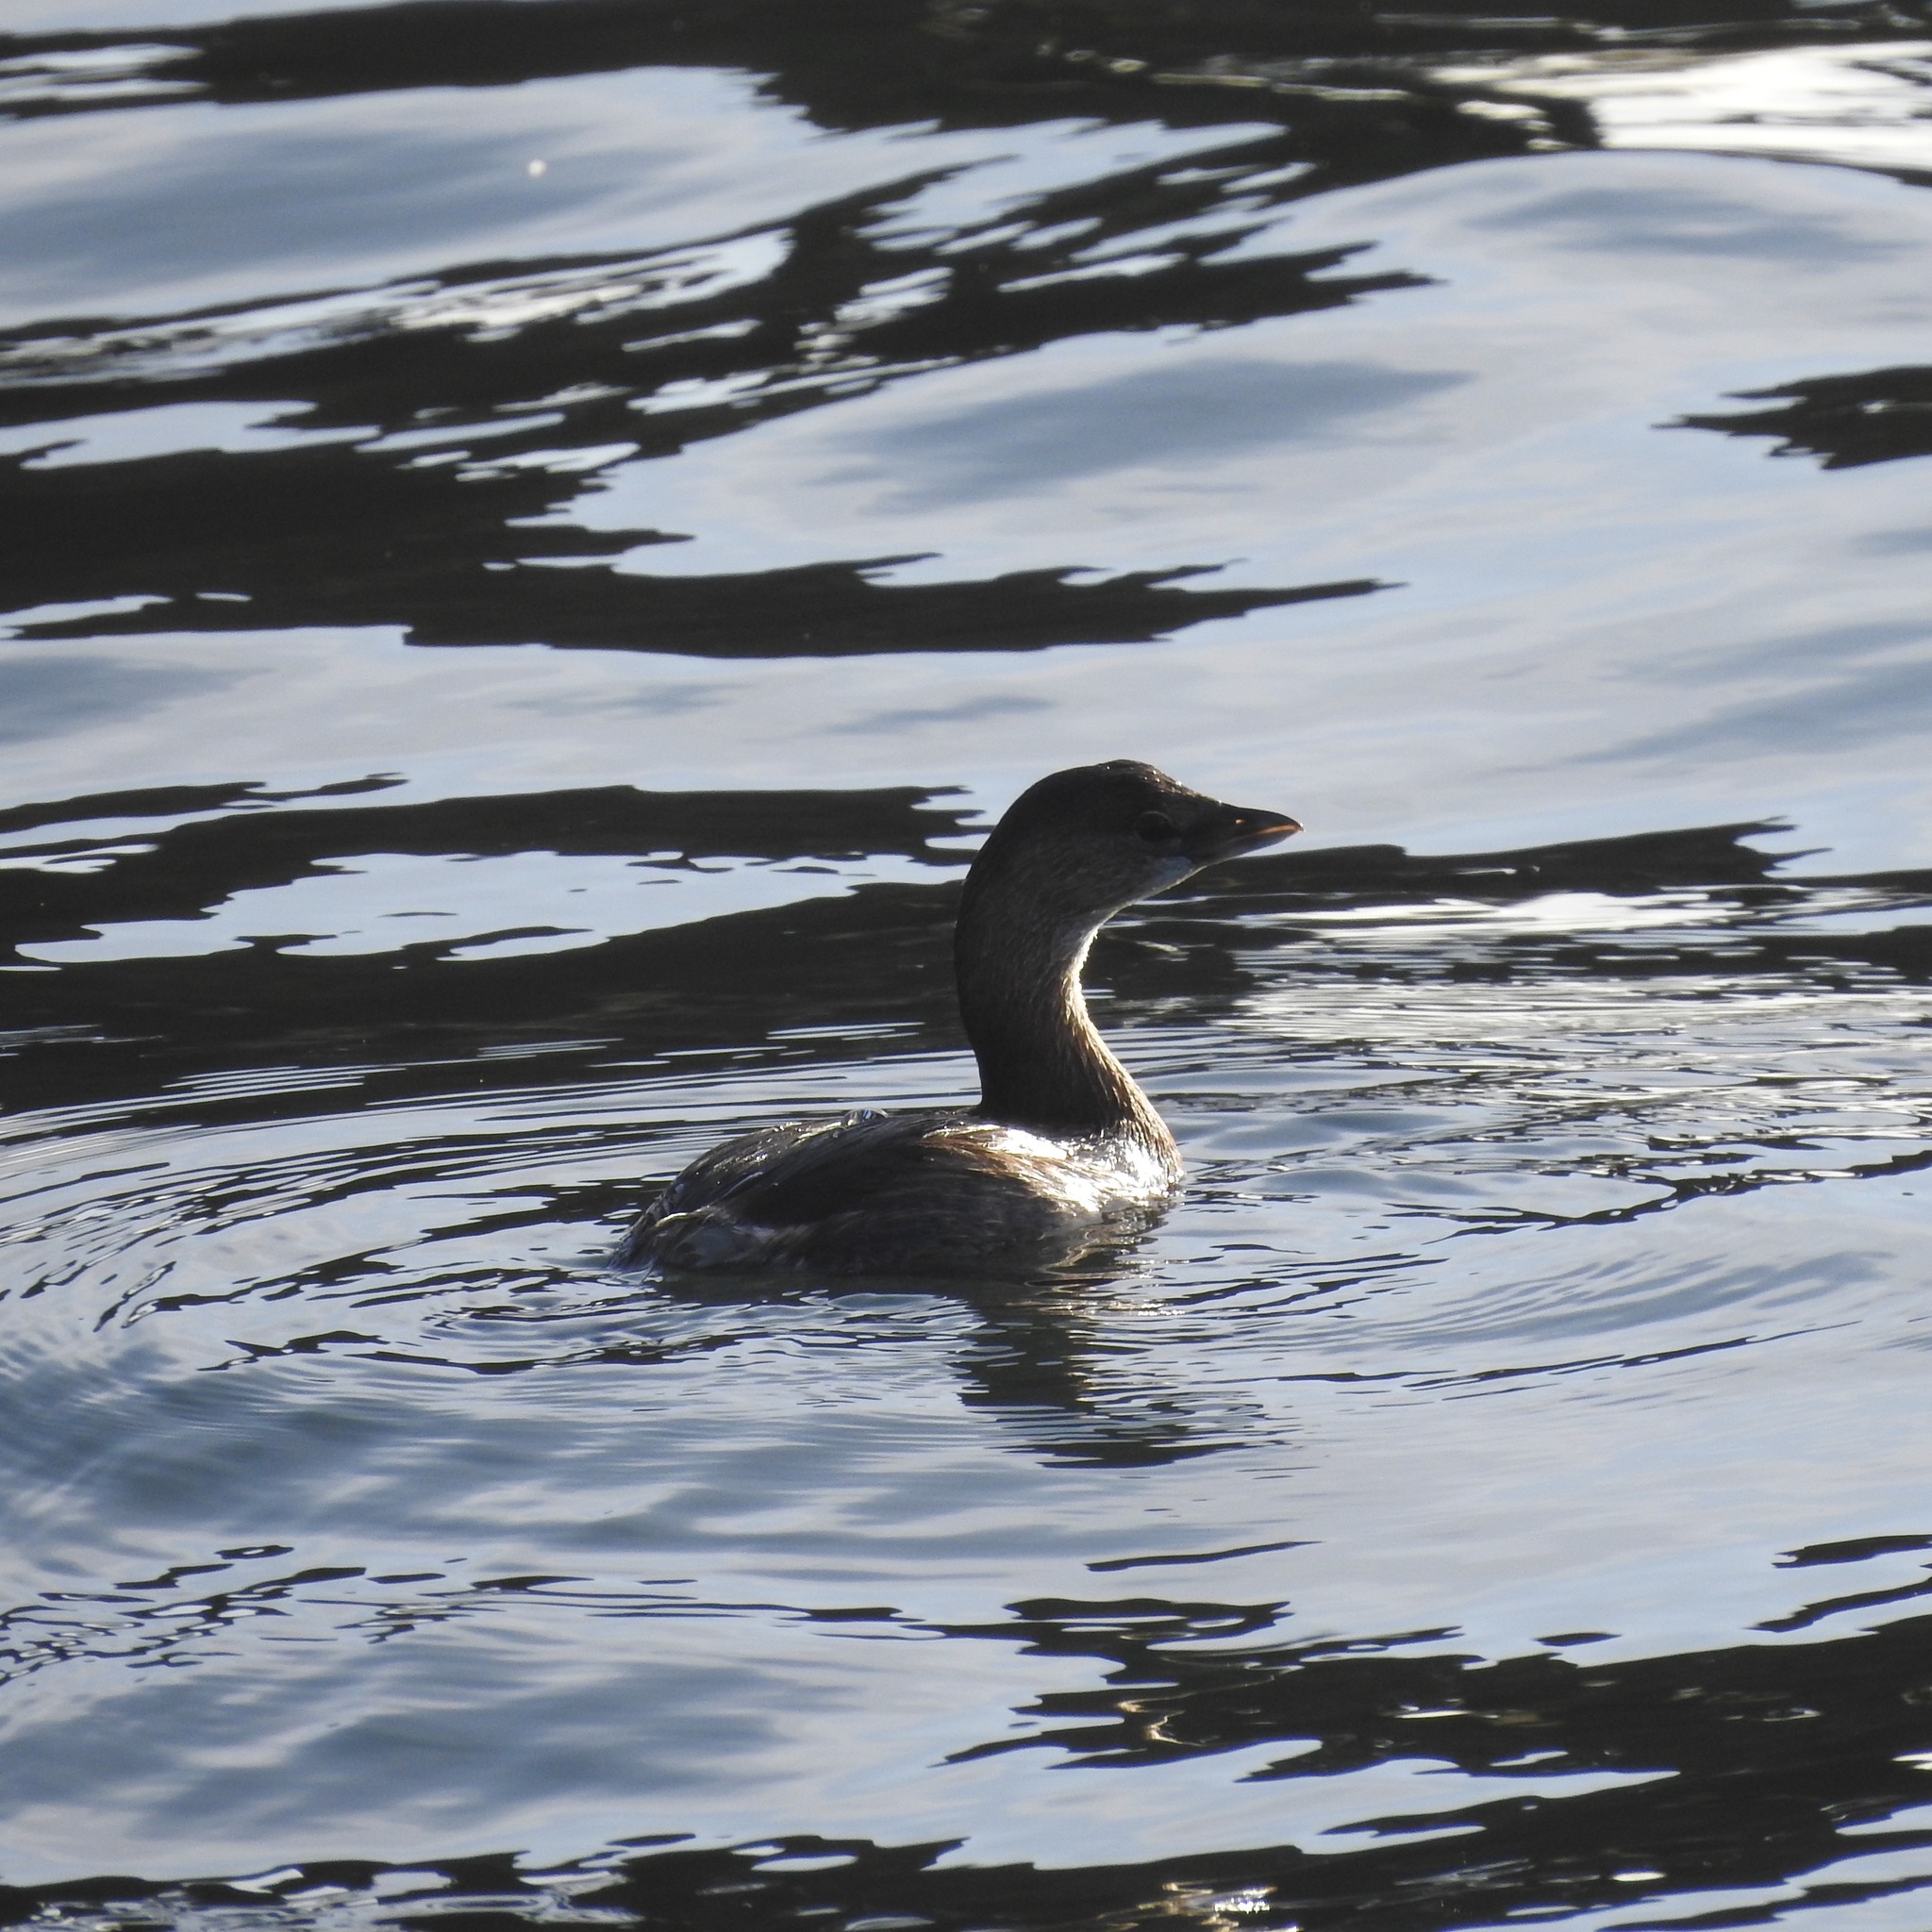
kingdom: Animalia
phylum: Chordata
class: Aves
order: Podicipediformes
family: Podicipedidae
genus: Podilymbus
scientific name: Podilymbus podiceps
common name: Pied-billed grebe
